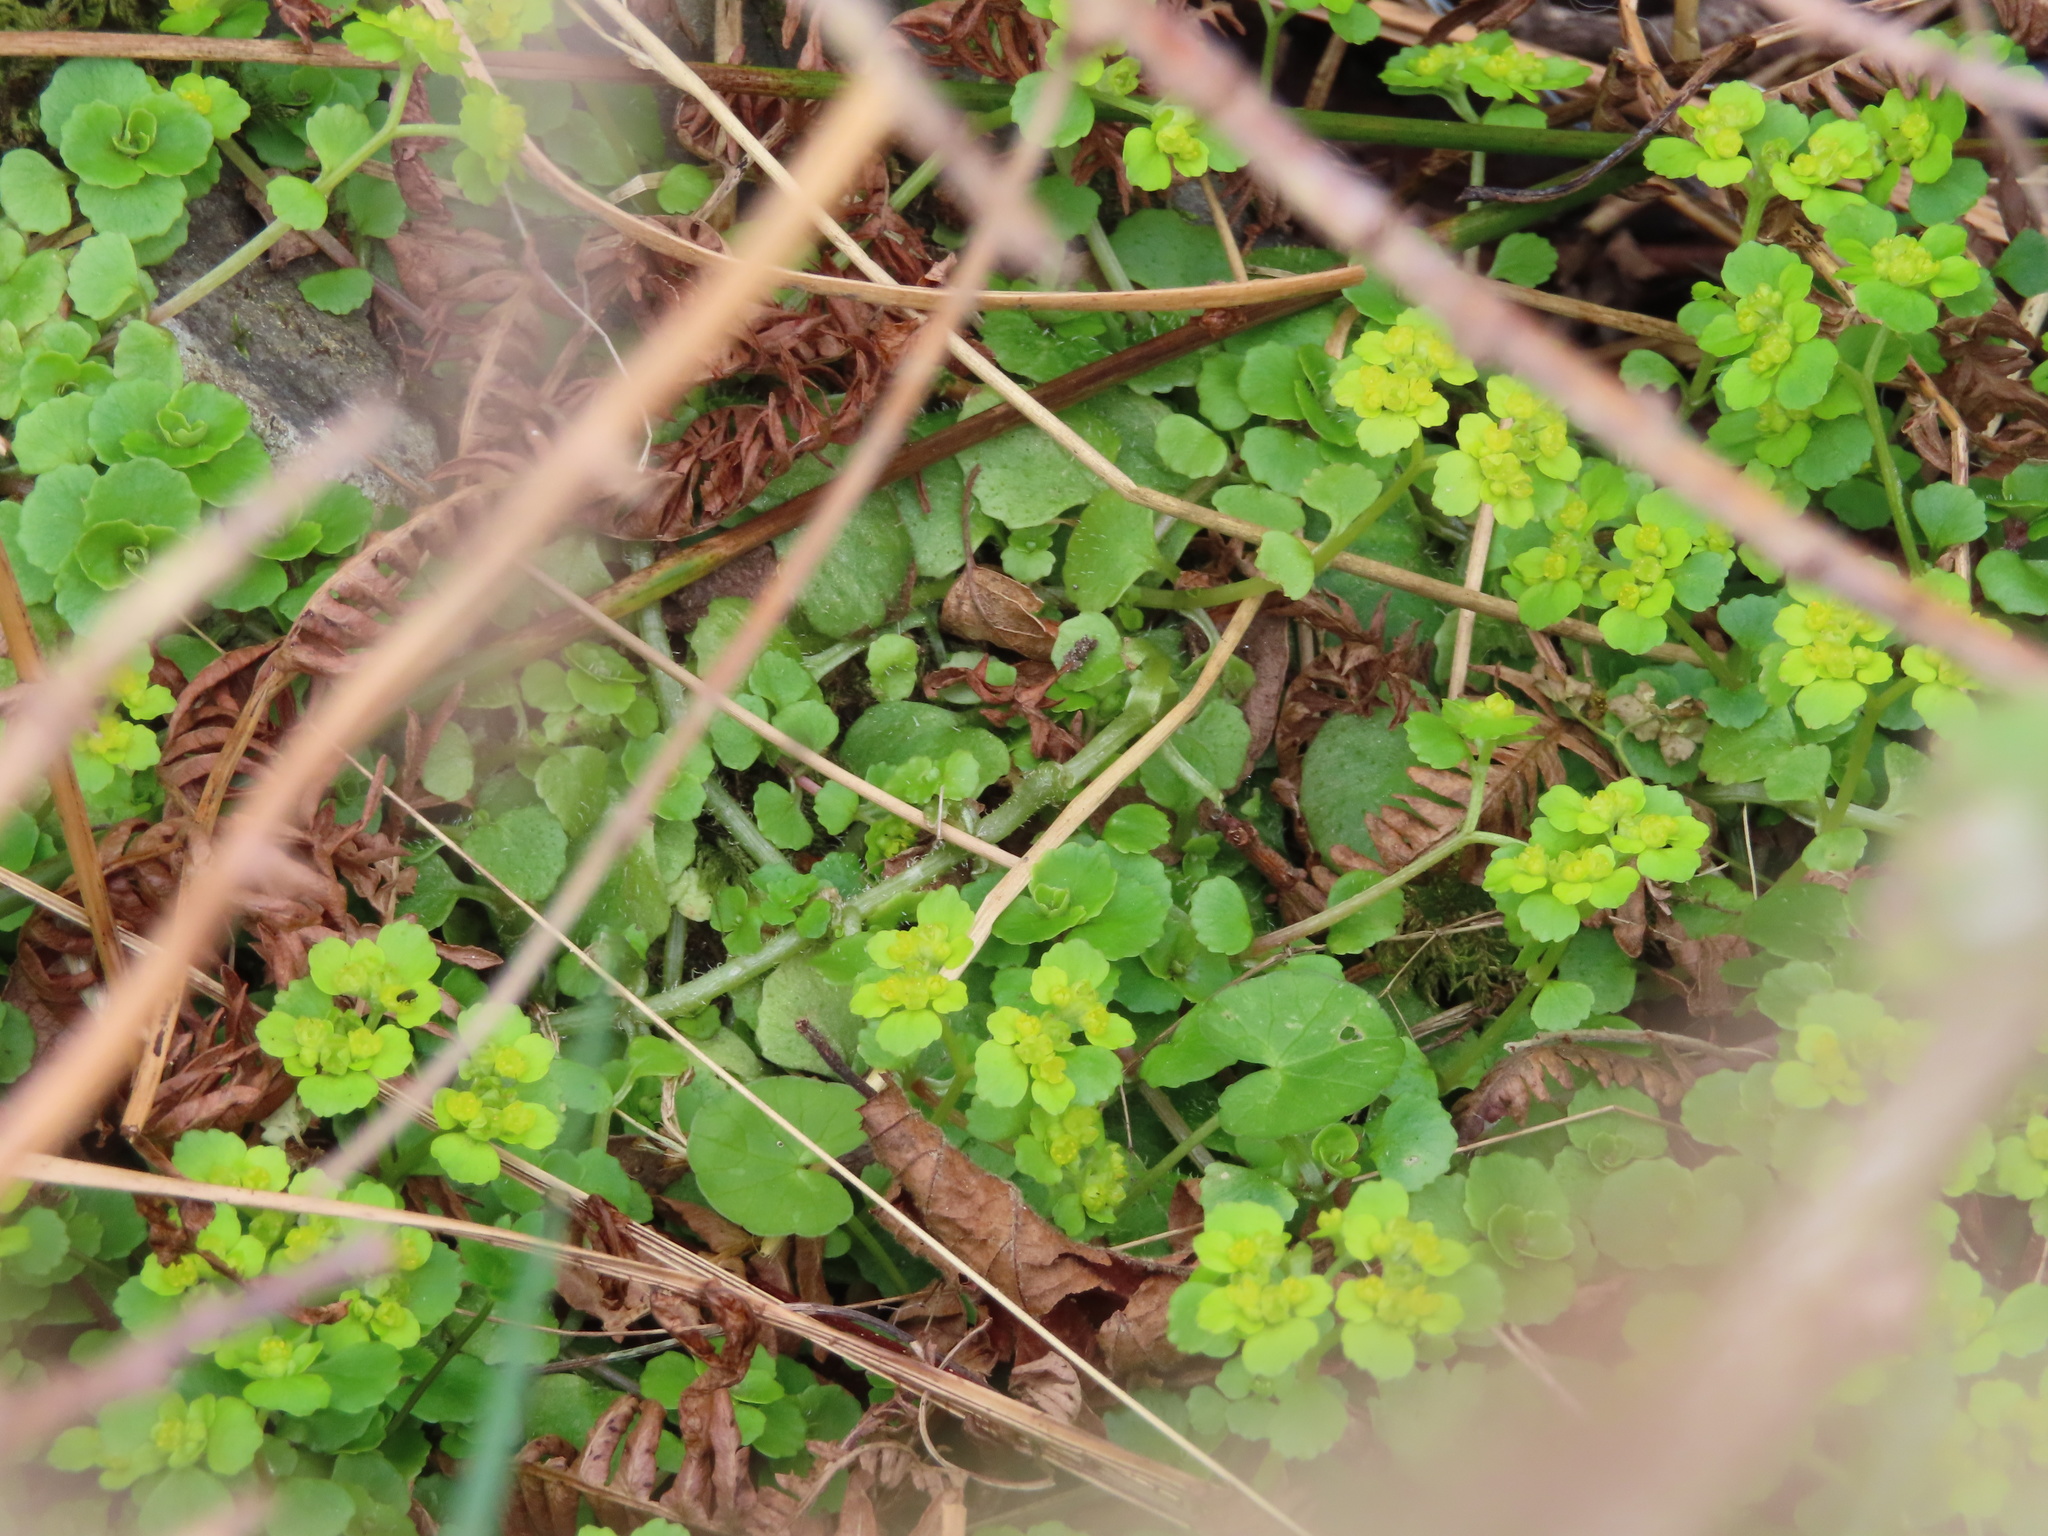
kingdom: Plantae
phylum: Tracheophyta
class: Magnoliopsida
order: Saxifragales
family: Saxifragaceae
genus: Chrysosplenium
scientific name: Chrysosplenium oppositifolium
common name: Opposite-leaved golden-saxifrage
